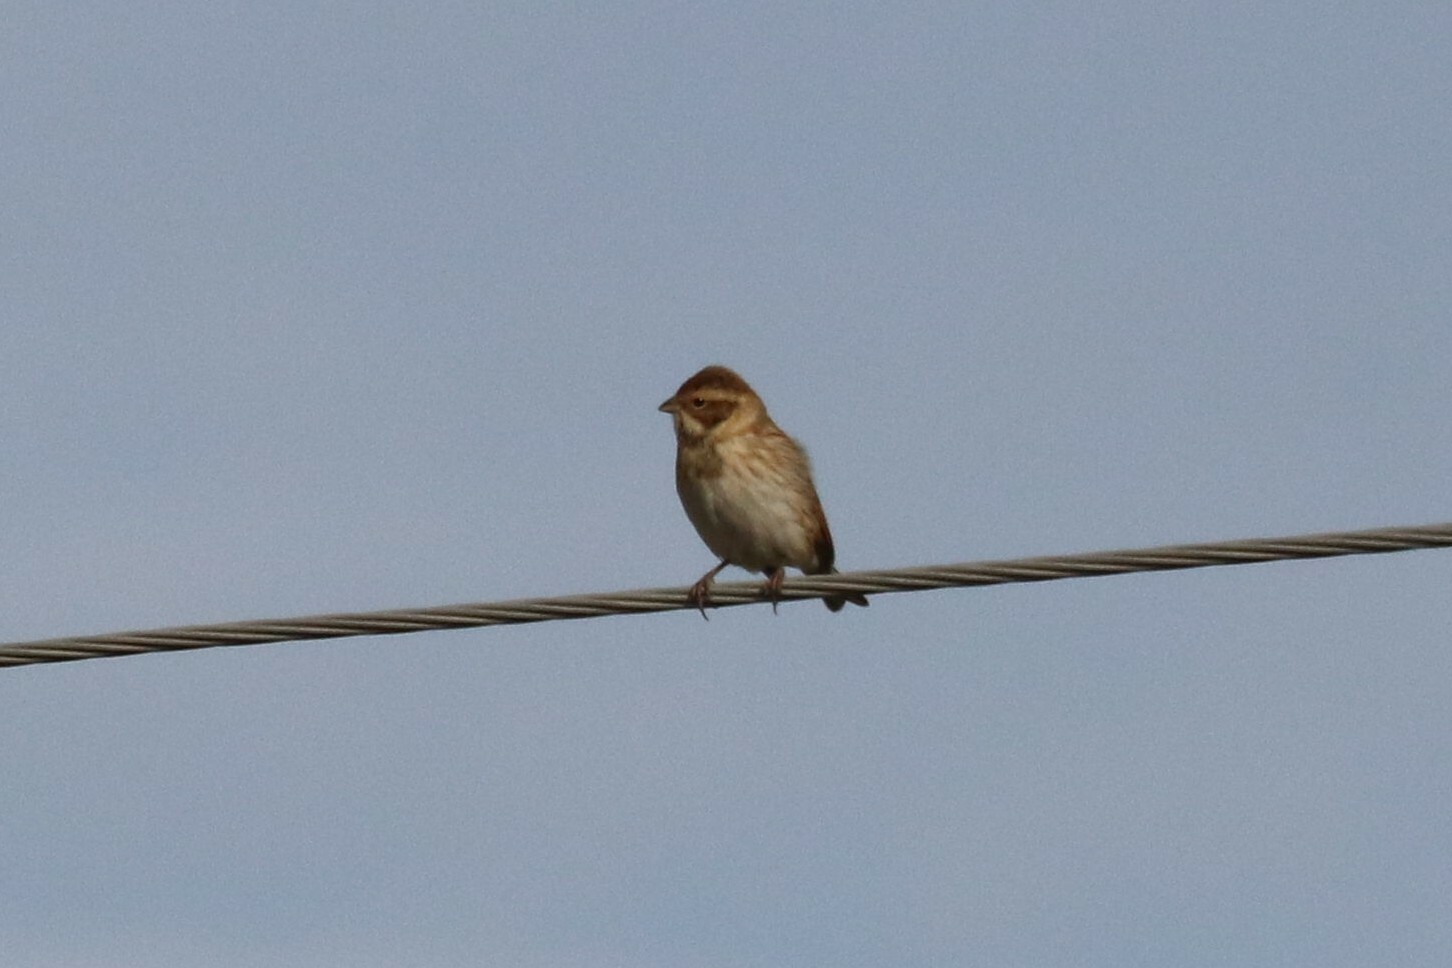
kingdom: Animalia
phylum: Chordata
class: Aves
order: Passeriformes
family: Emberizidae
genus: Emberiza
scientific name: Emberiza schoeniclus
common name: Reed bunting
